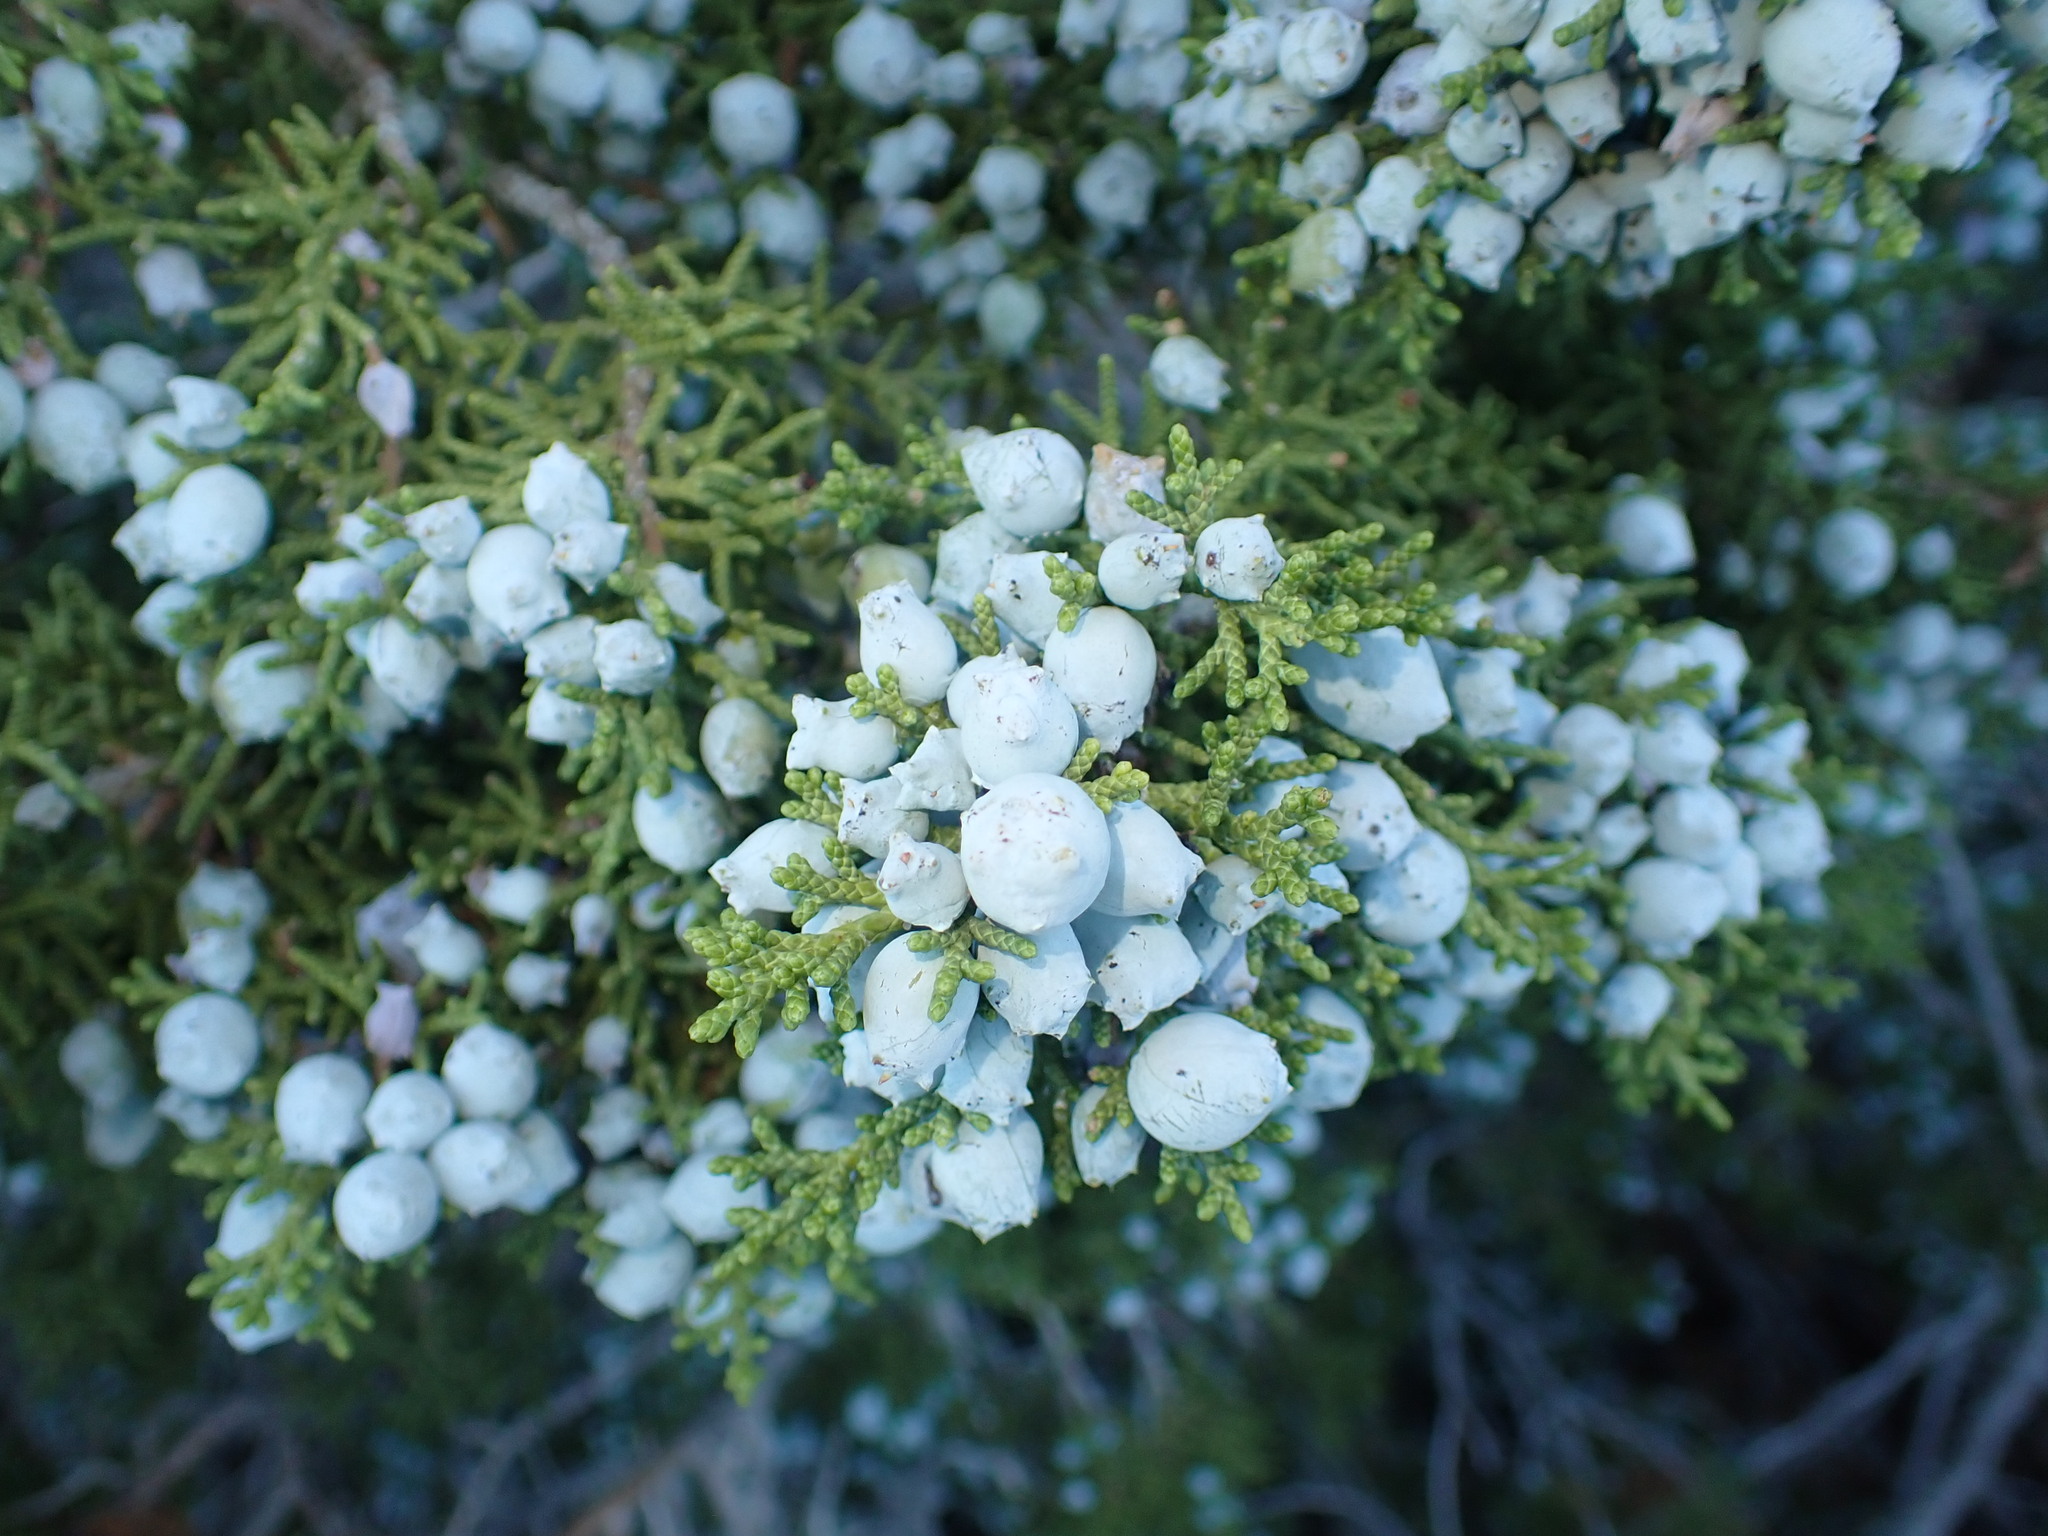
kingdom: Plantae
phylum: Tracheophyta
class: Pinopsida
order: Pinales
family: Cupressaceae
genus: Juniperus
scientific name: Juniperus californica
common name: California juniper
